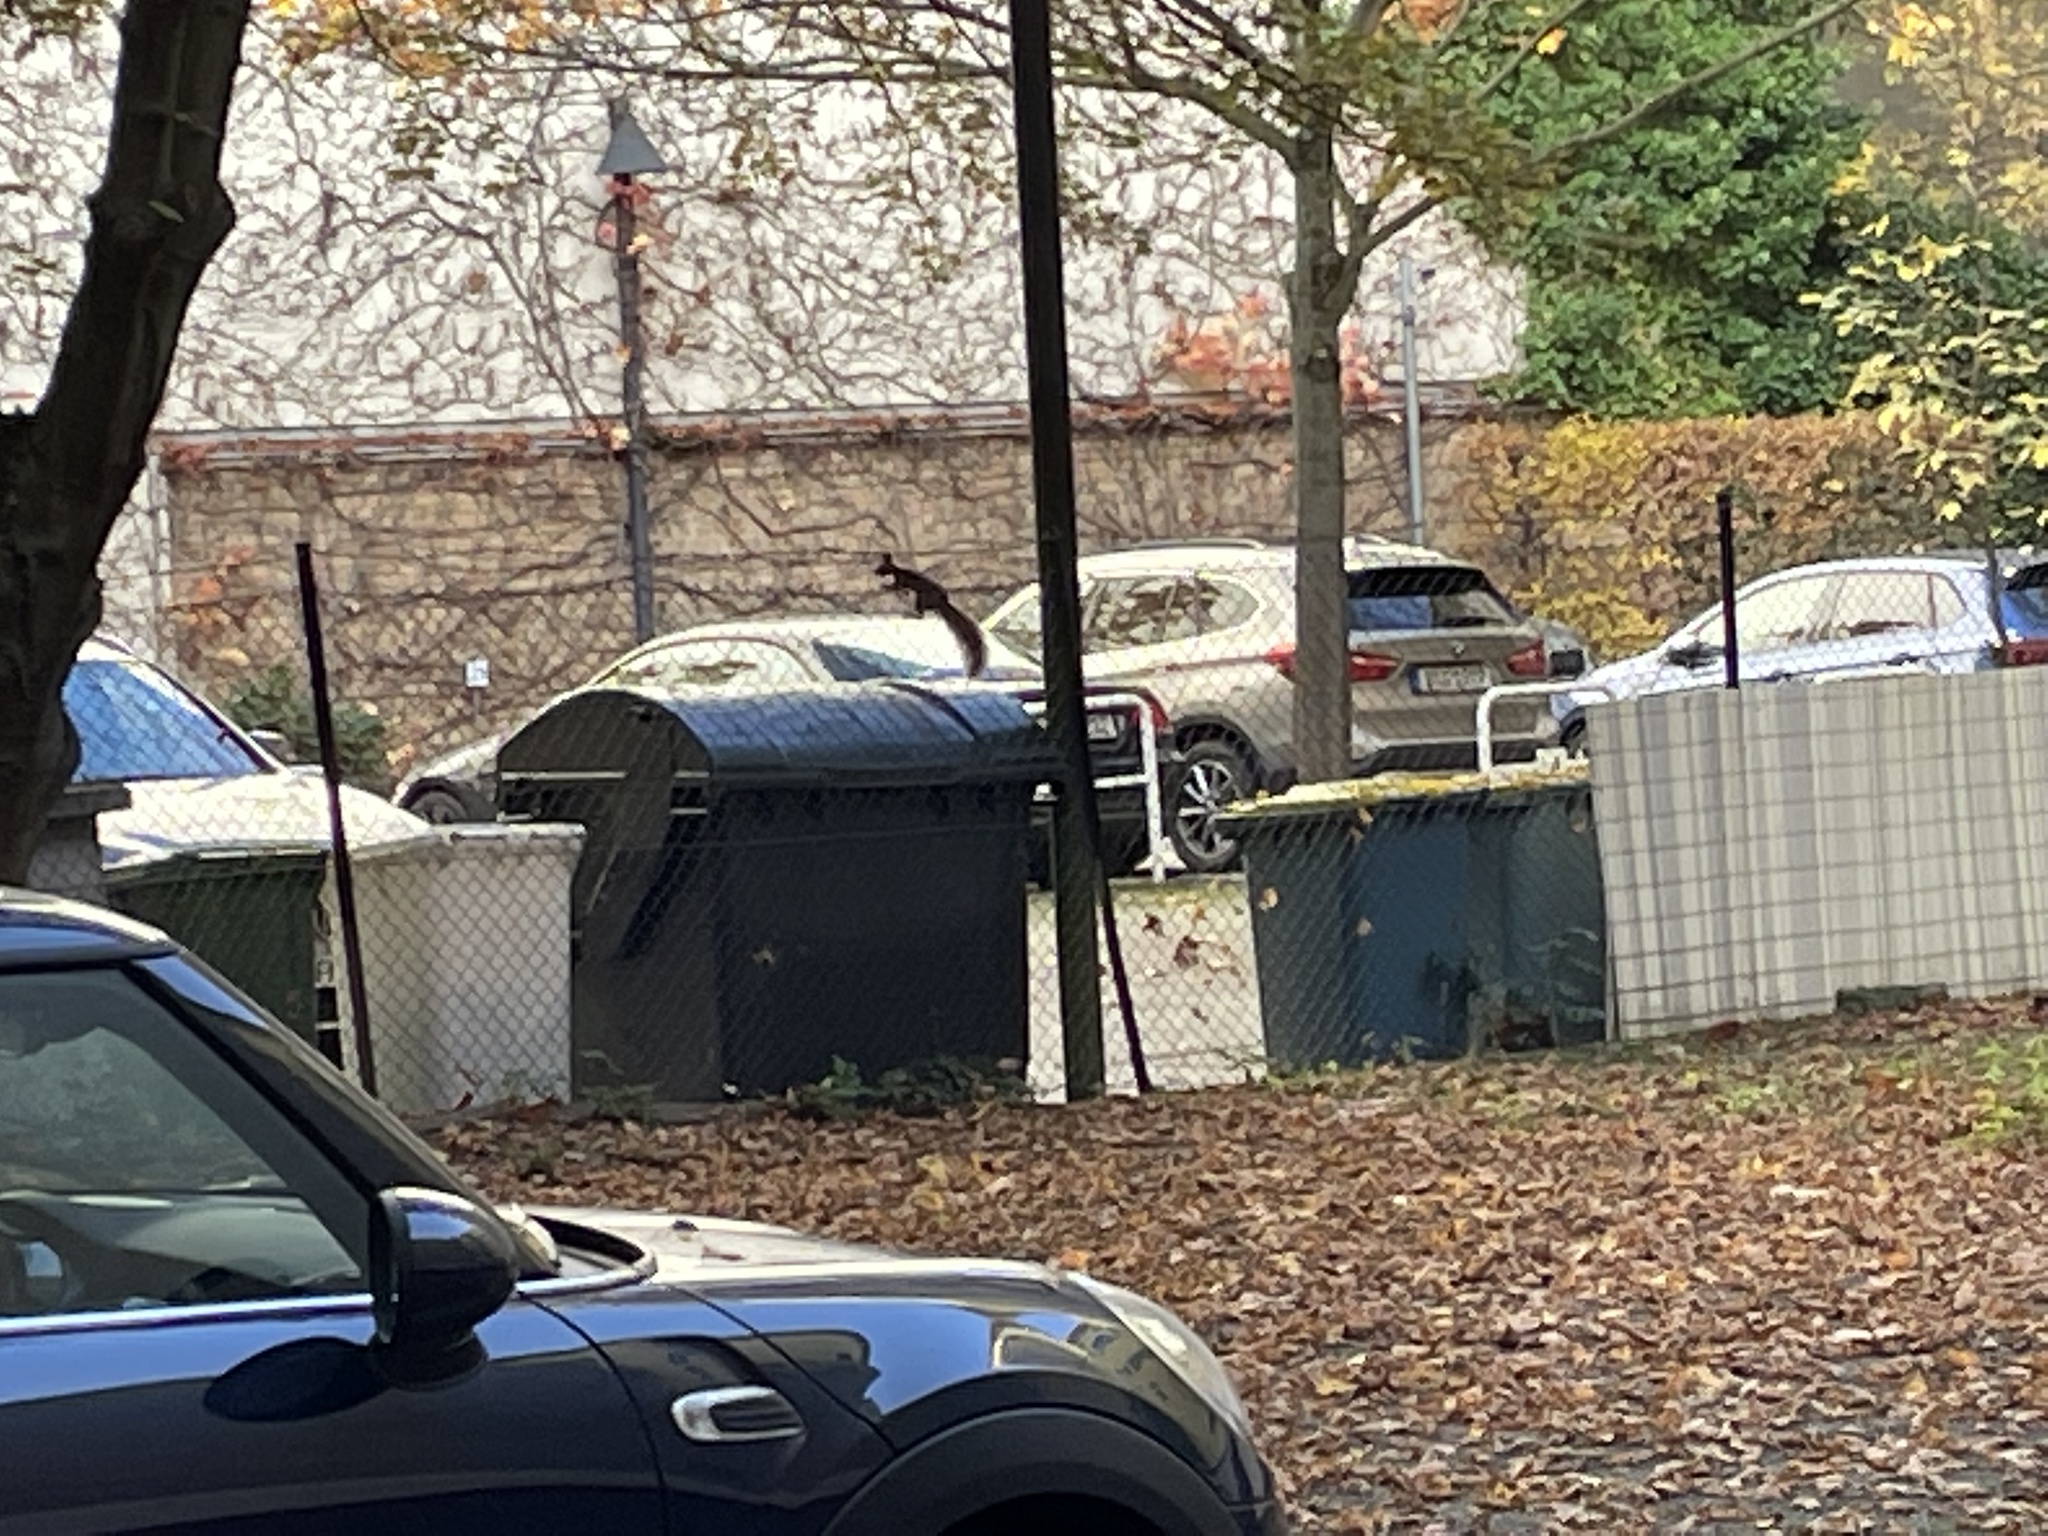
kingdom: Animalia
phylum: Chordata
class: Mammalia
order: Rodentia
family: Sciuridae
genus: Sciurus
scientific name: Sciurus vulgaris
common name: Eurasian red squirrel
